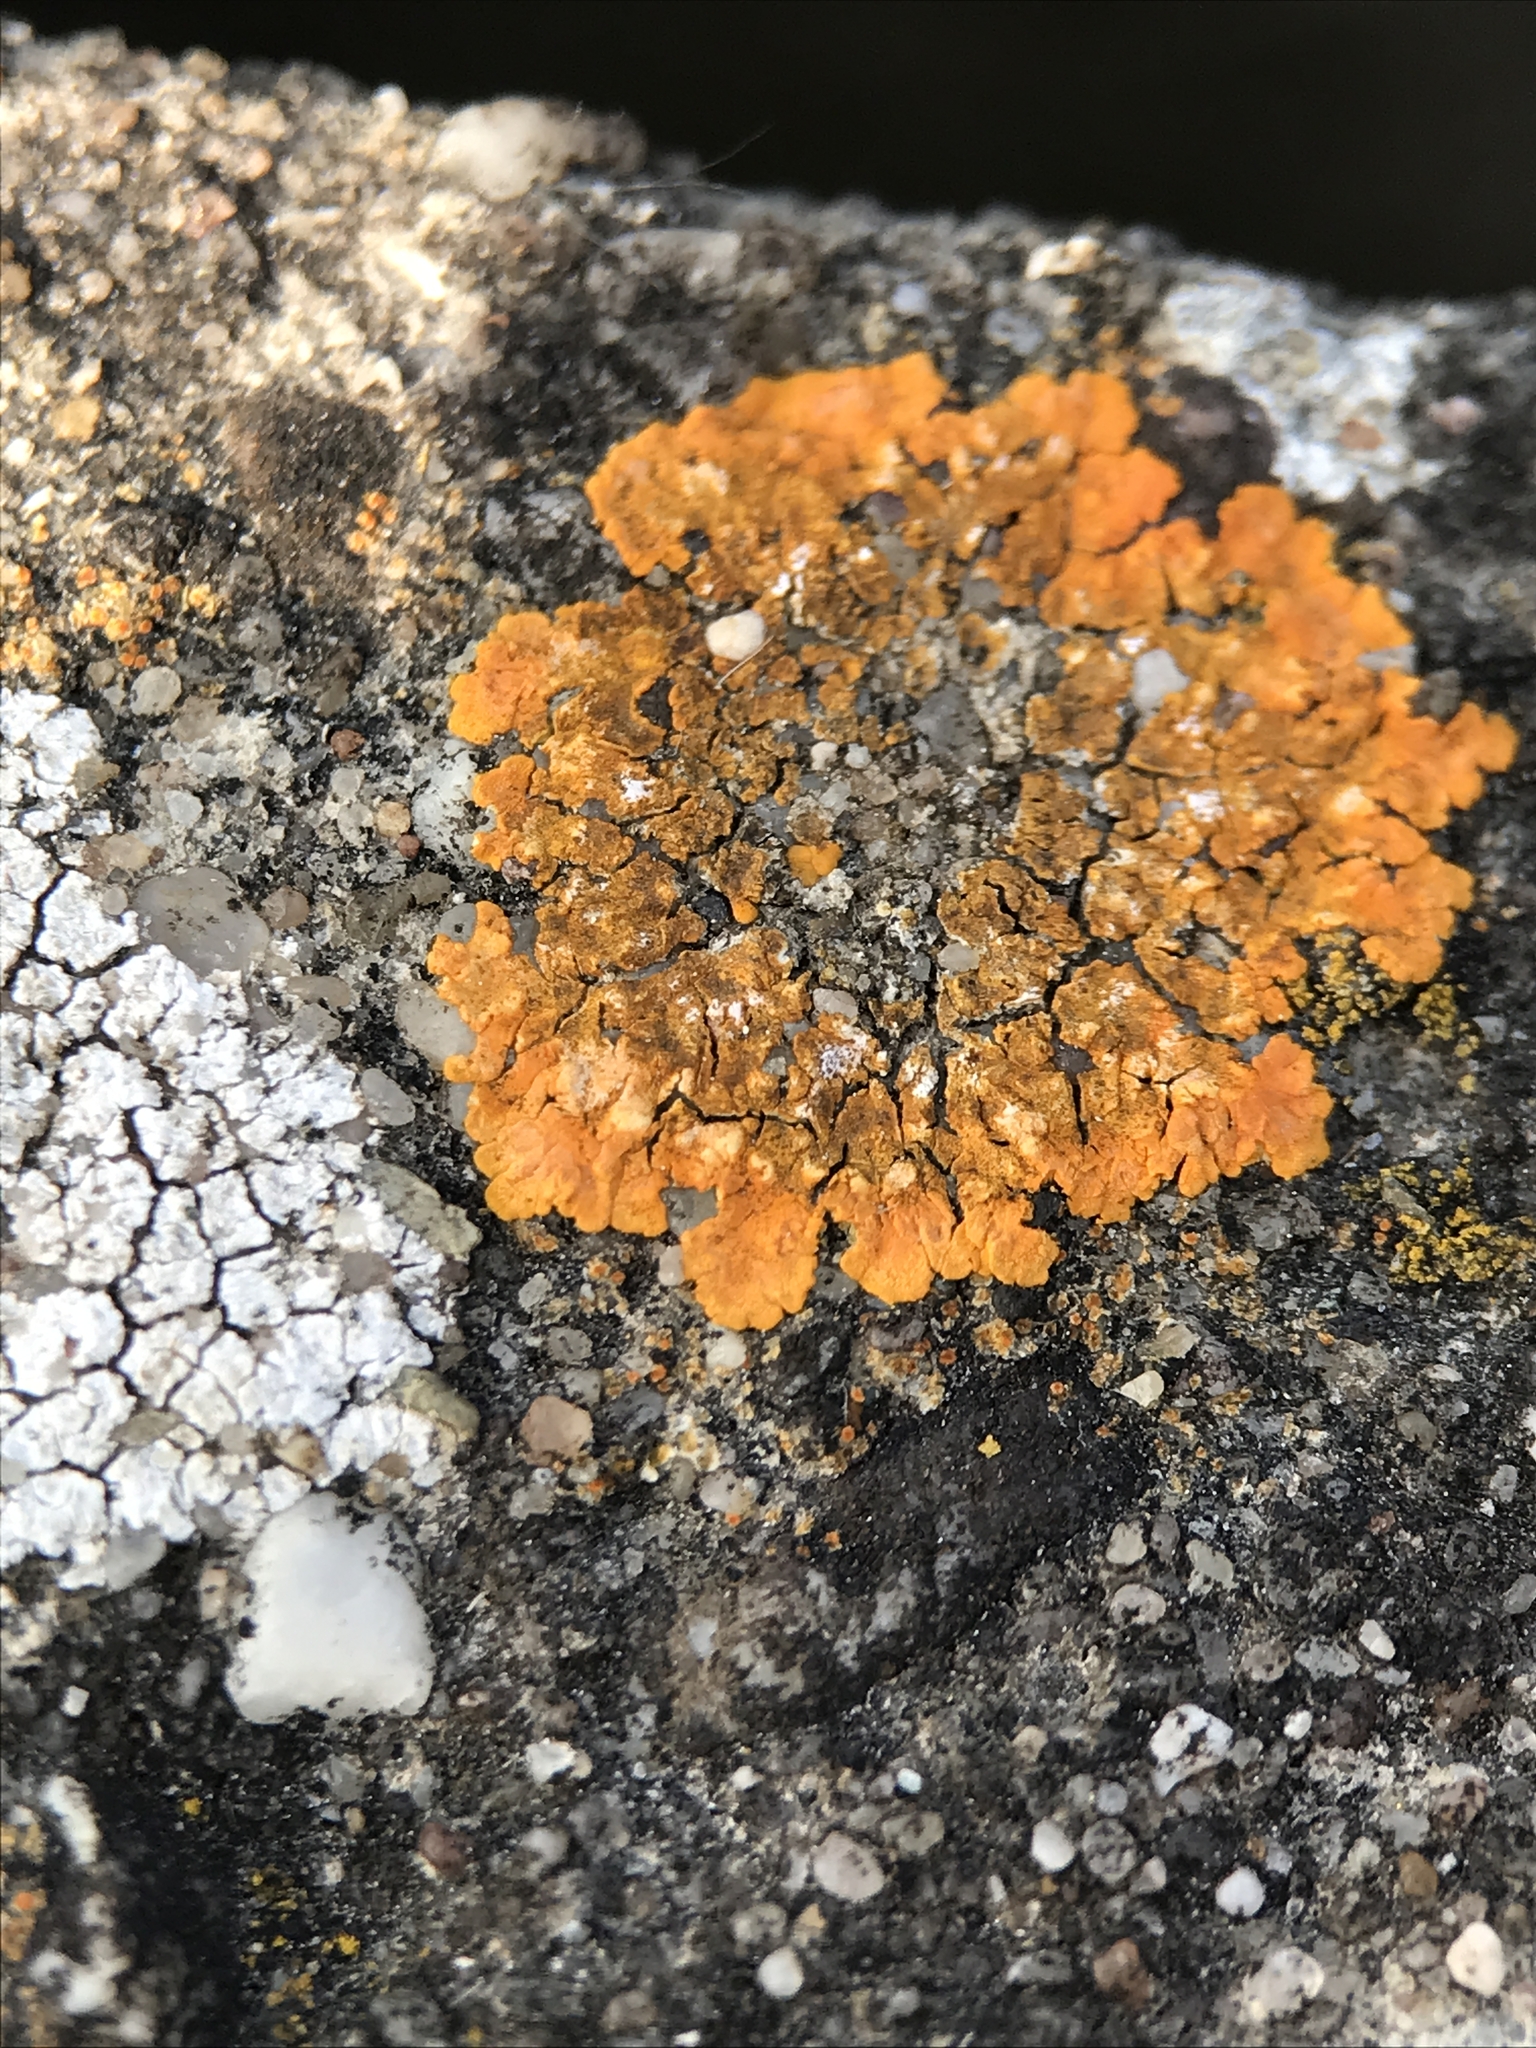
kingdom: Fungi
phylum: Ascomycota
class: Lecanoromycetes
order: Teloschistales
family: Teloschistaceae
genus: Variospora
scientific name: Variospora aurantia
